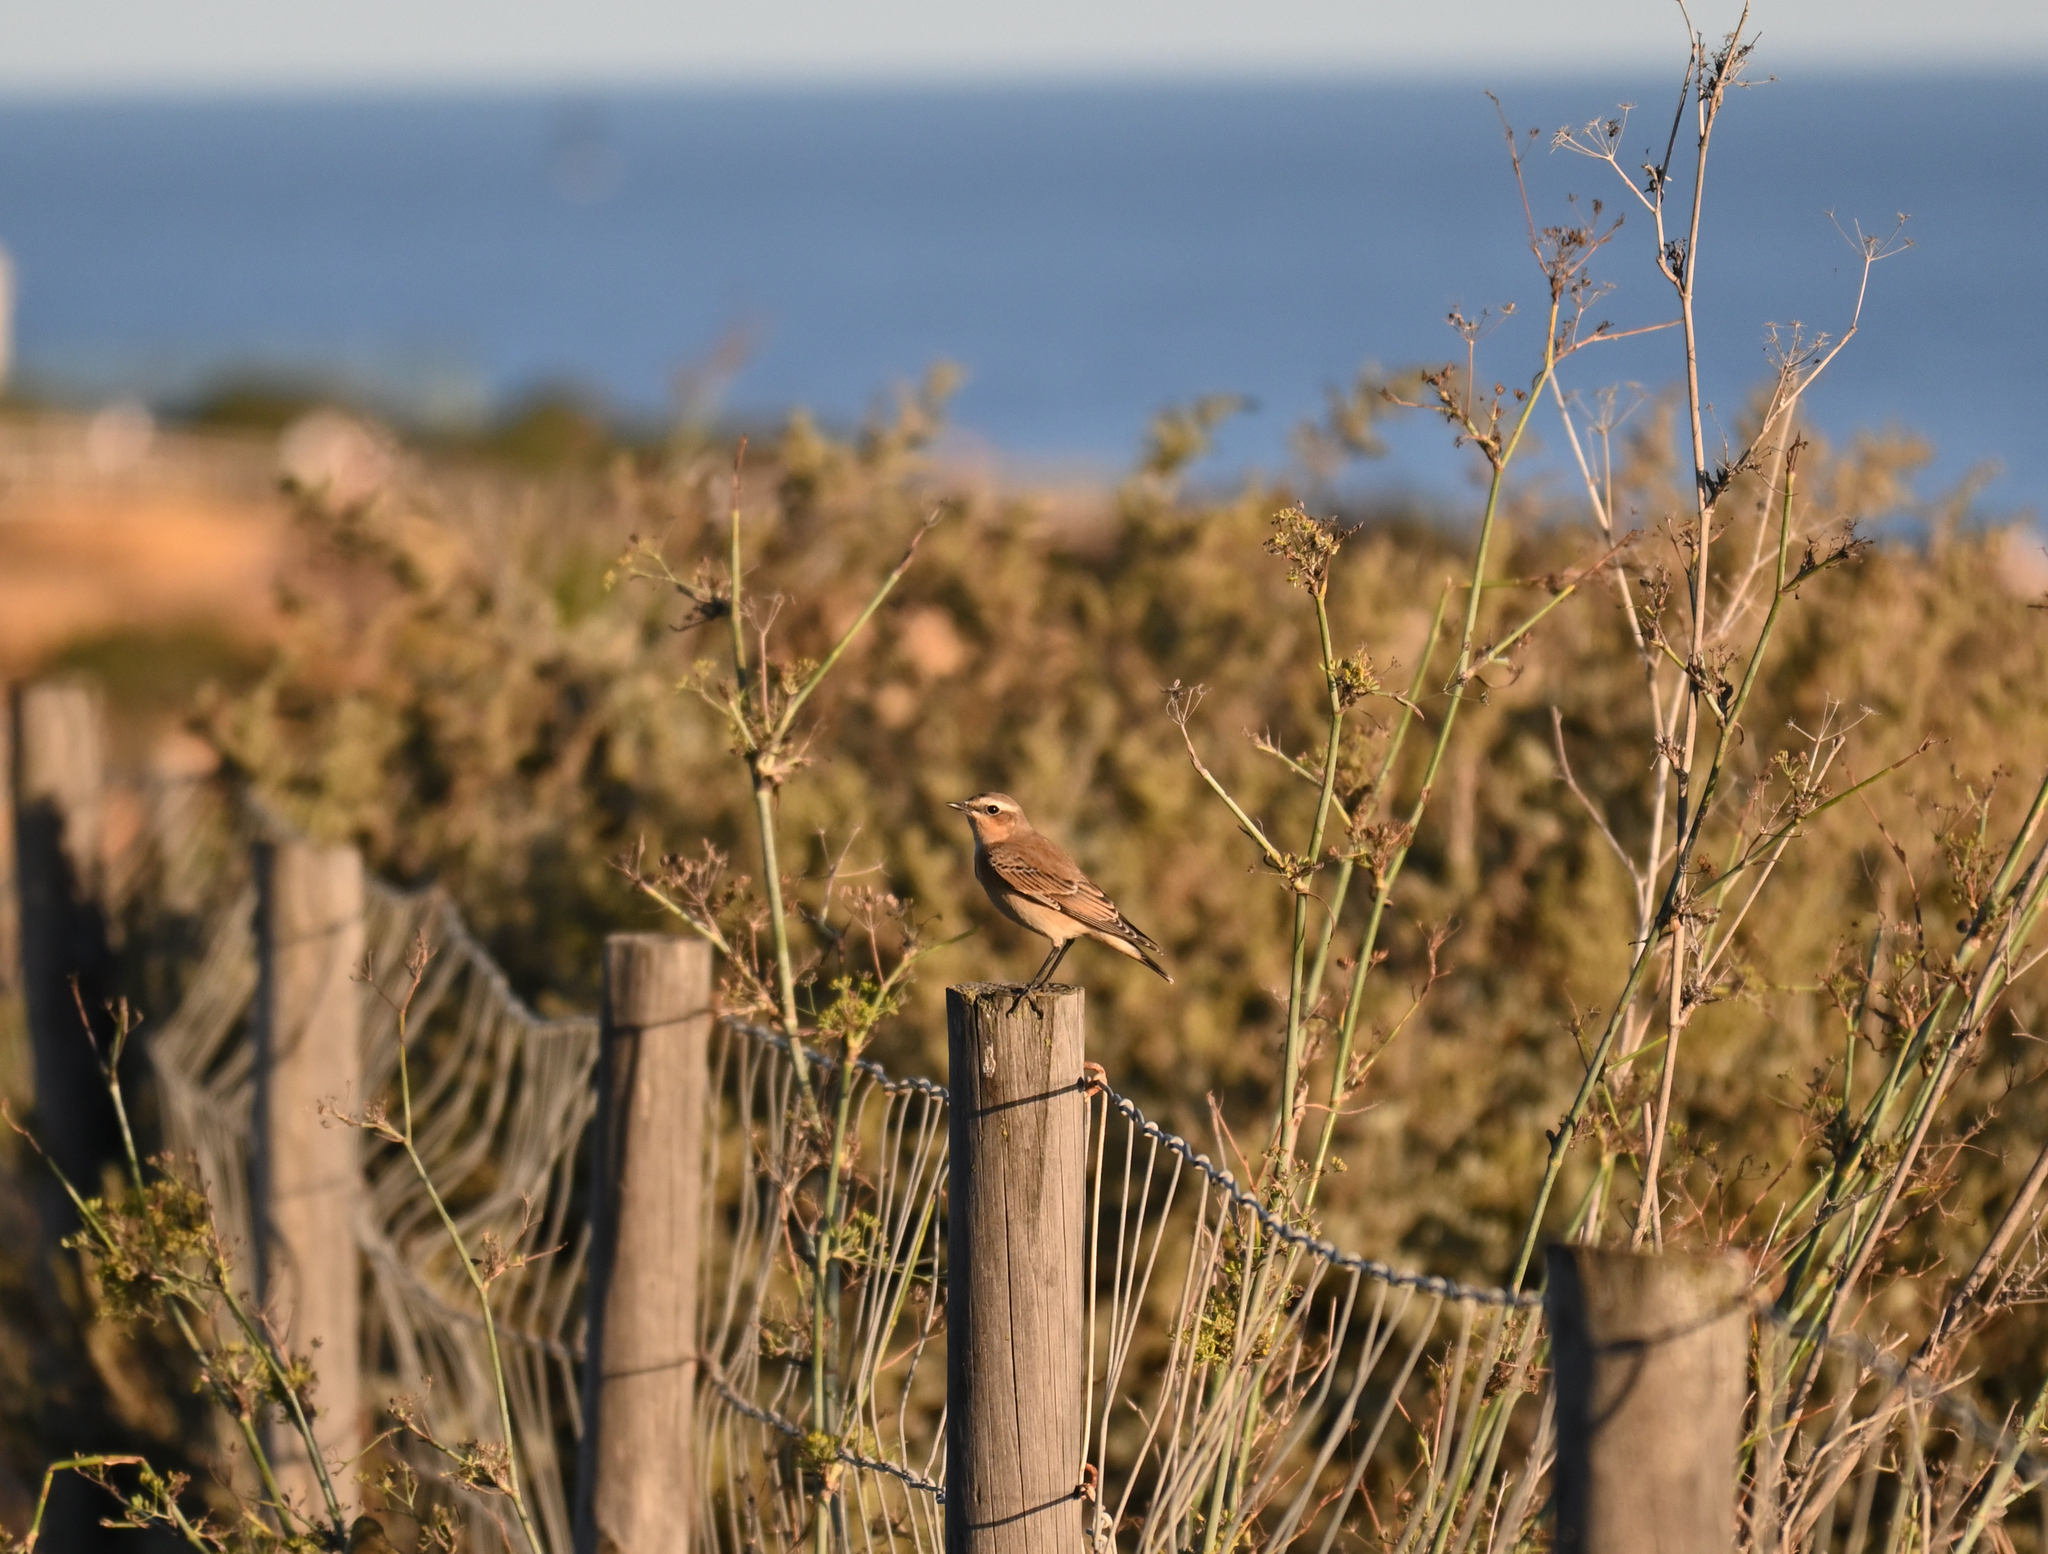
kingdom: Animalia
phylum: Chordata
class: Aves
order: Passeriformes
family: Muscicapidae
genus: Oenanthe
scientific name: Oenanthe oenanthe
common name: Northern wheatear
